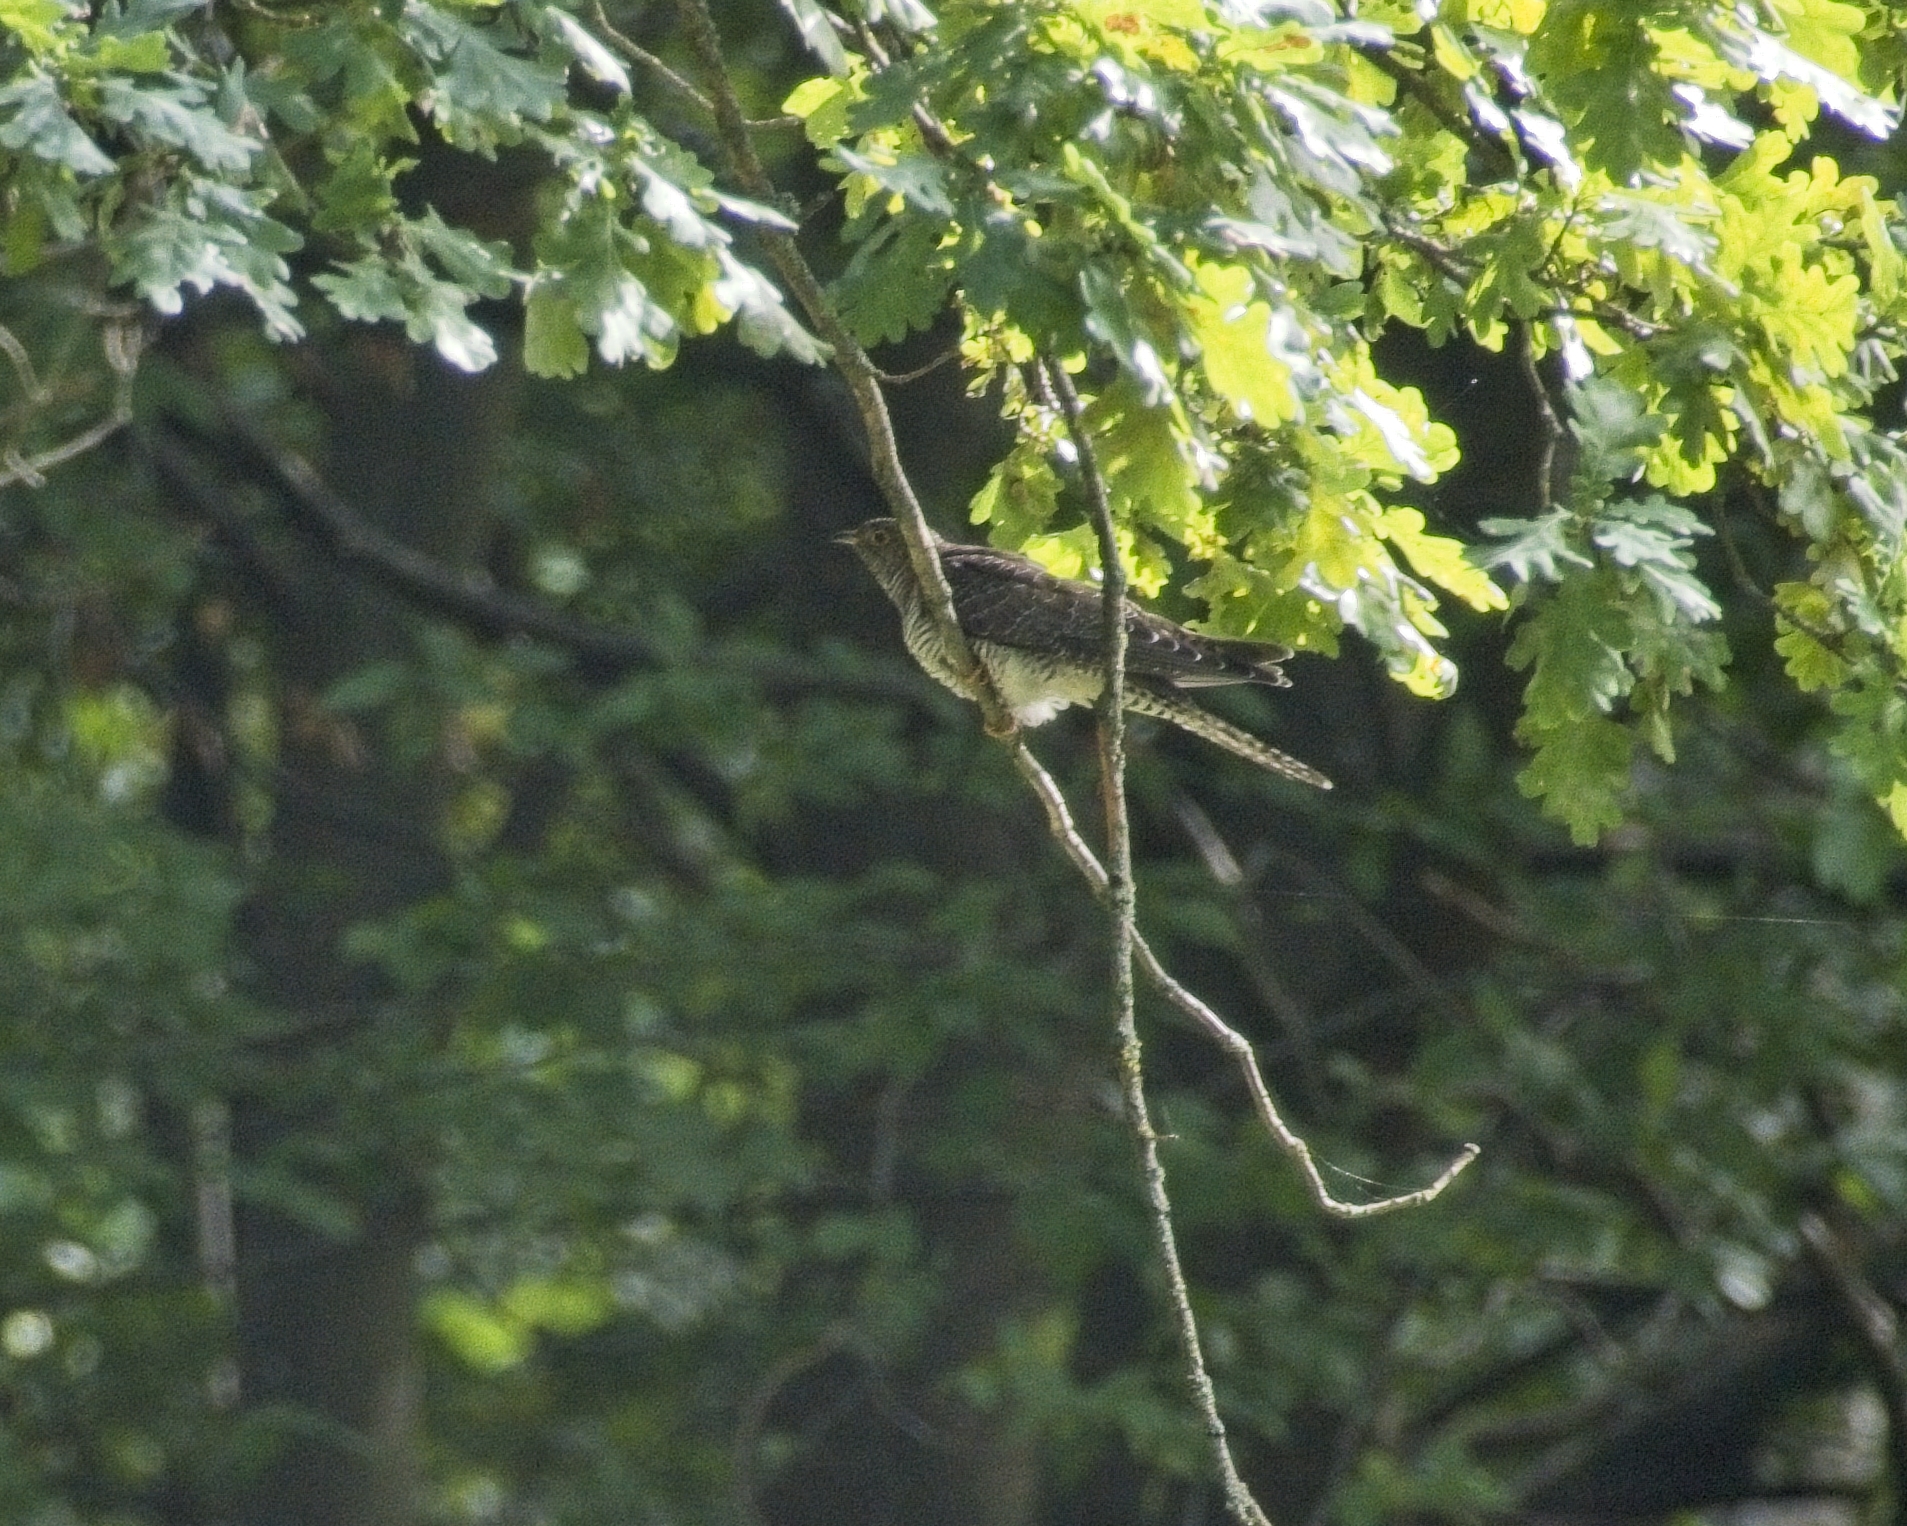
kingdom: Animalia
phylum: Chordata
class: Aves
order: Cuculiformes
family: Cuculidae
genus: Cuculus
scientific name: Cuculus canorus
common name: Common cuckoo
